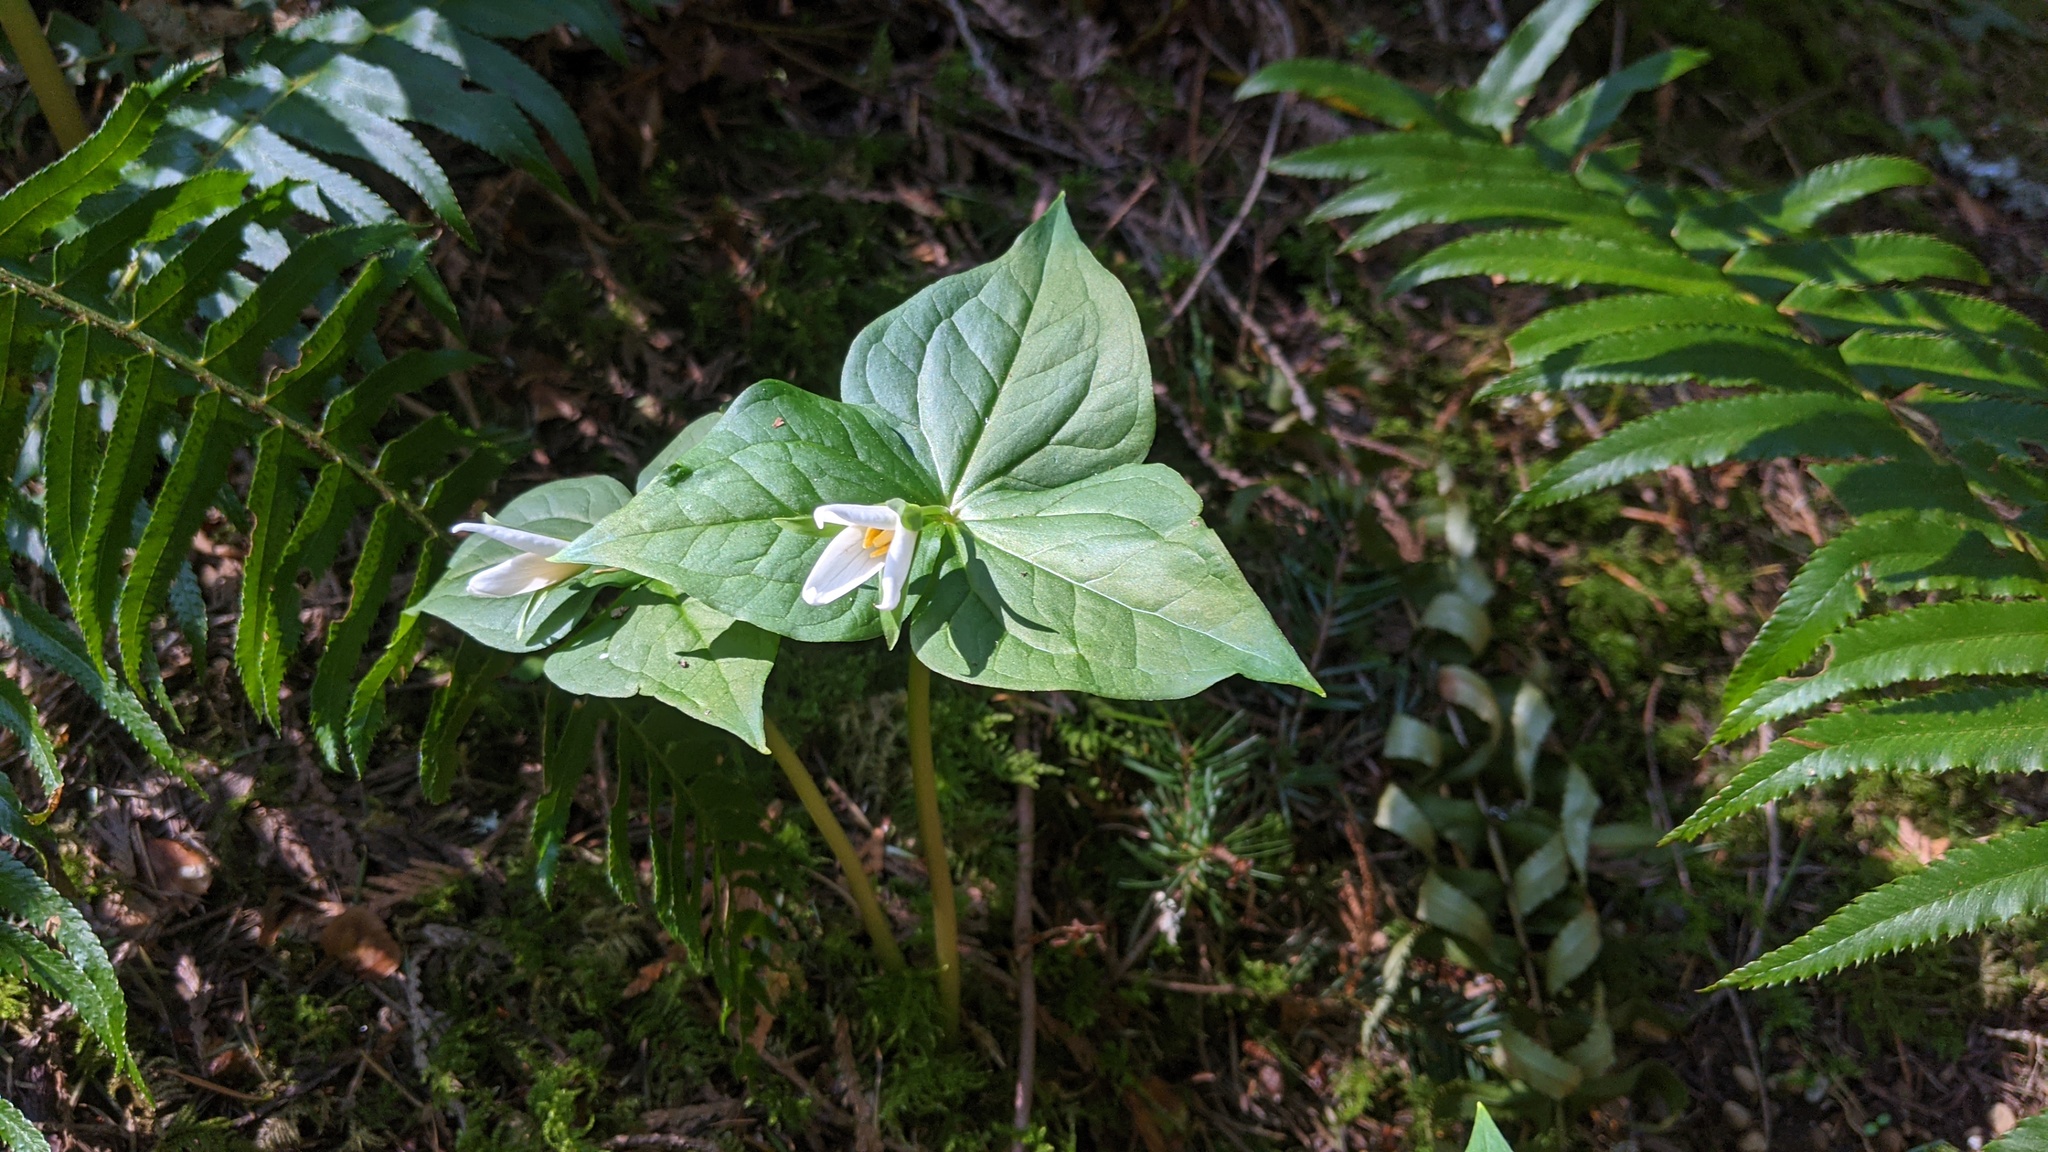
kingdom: Plantae
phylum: Tracheophyta
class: Liliopsida
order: Liliales
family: Melanthiaceae
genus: Trillium
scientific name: Trillium ovatum
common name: Pacific trillium
